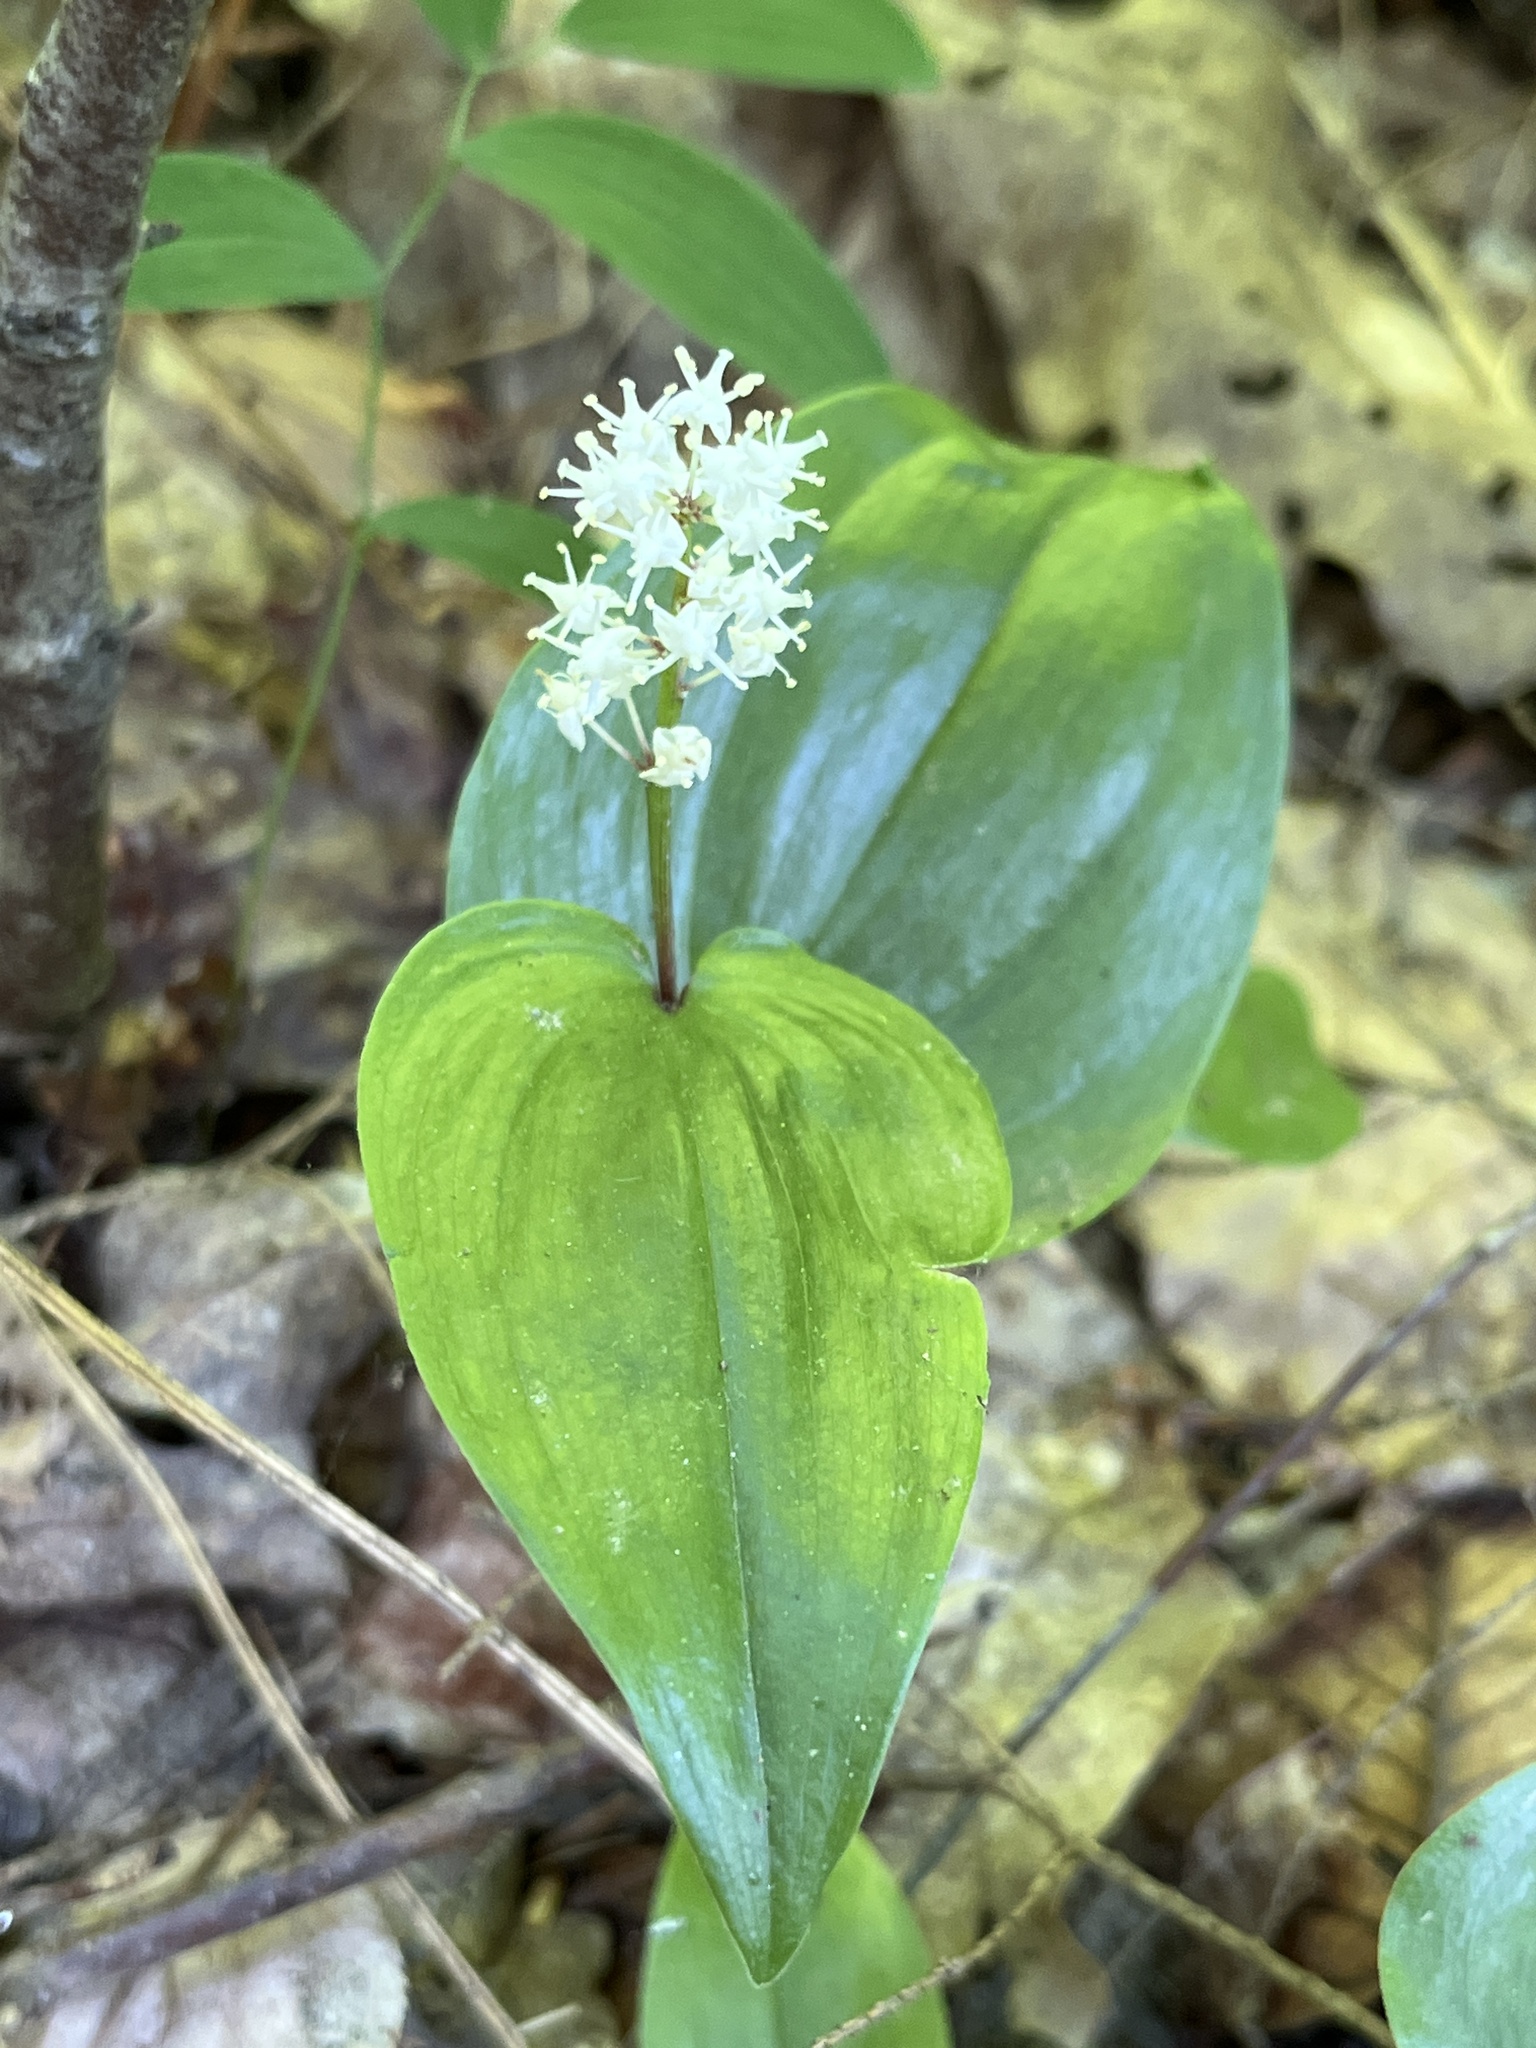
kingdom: Plantae
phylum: Tracheophyta
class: Liliopsida
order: Asparagales
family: Asparagaceae
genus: Maianthemum
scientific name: Maianthemum canadense
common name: False lily-of-the-valley
